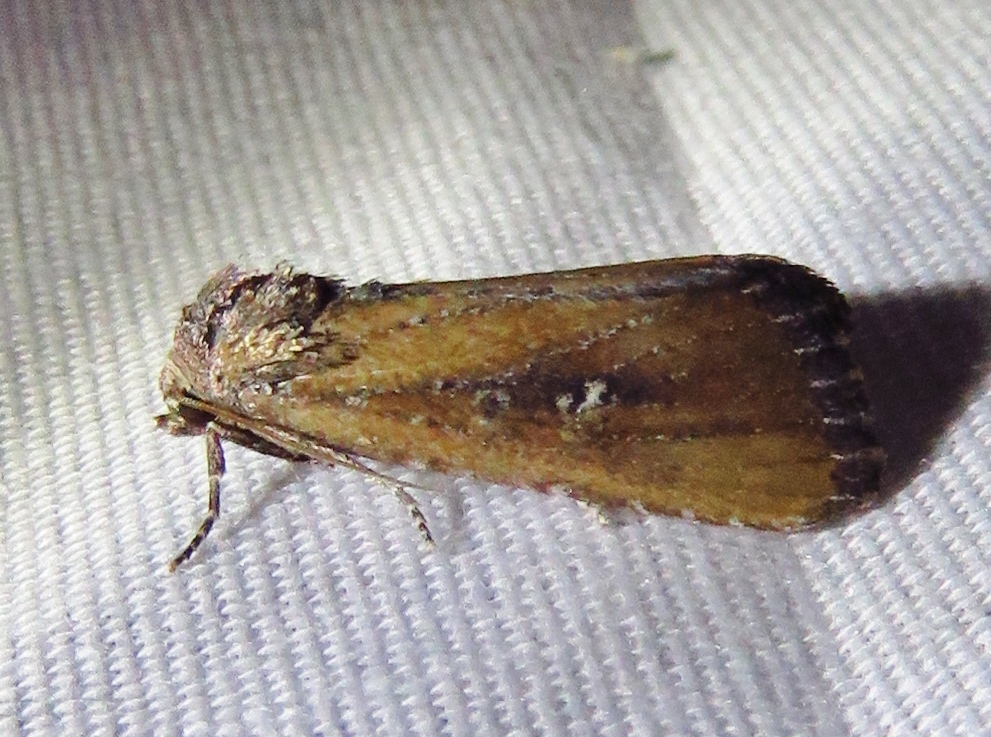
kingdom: Animalia
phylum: Arthropoda
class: Insecta
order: Lepidoptera
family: Noctuidae
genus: Condica
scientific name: Condica videns
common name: White-dotted groundling
